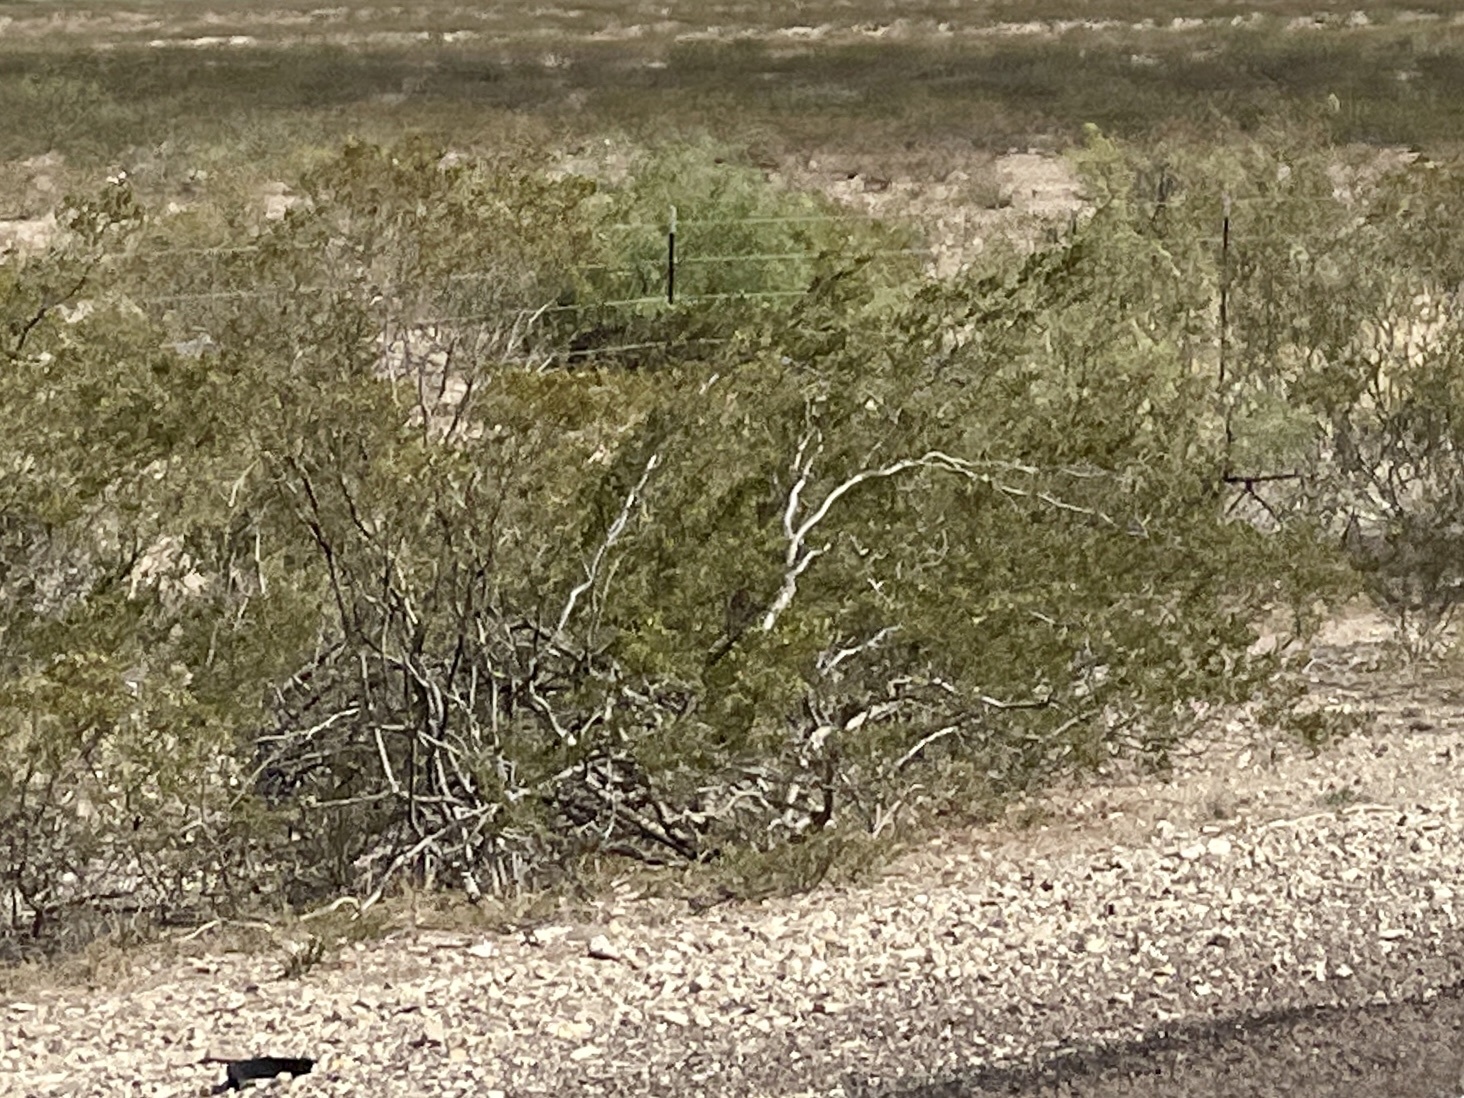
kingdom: Plantae
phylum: Tracheophyta
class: Magnoliopsida
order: Zygophyllales
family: Zygophyllaceae
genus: Larrea
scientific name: Larrea tridentata
